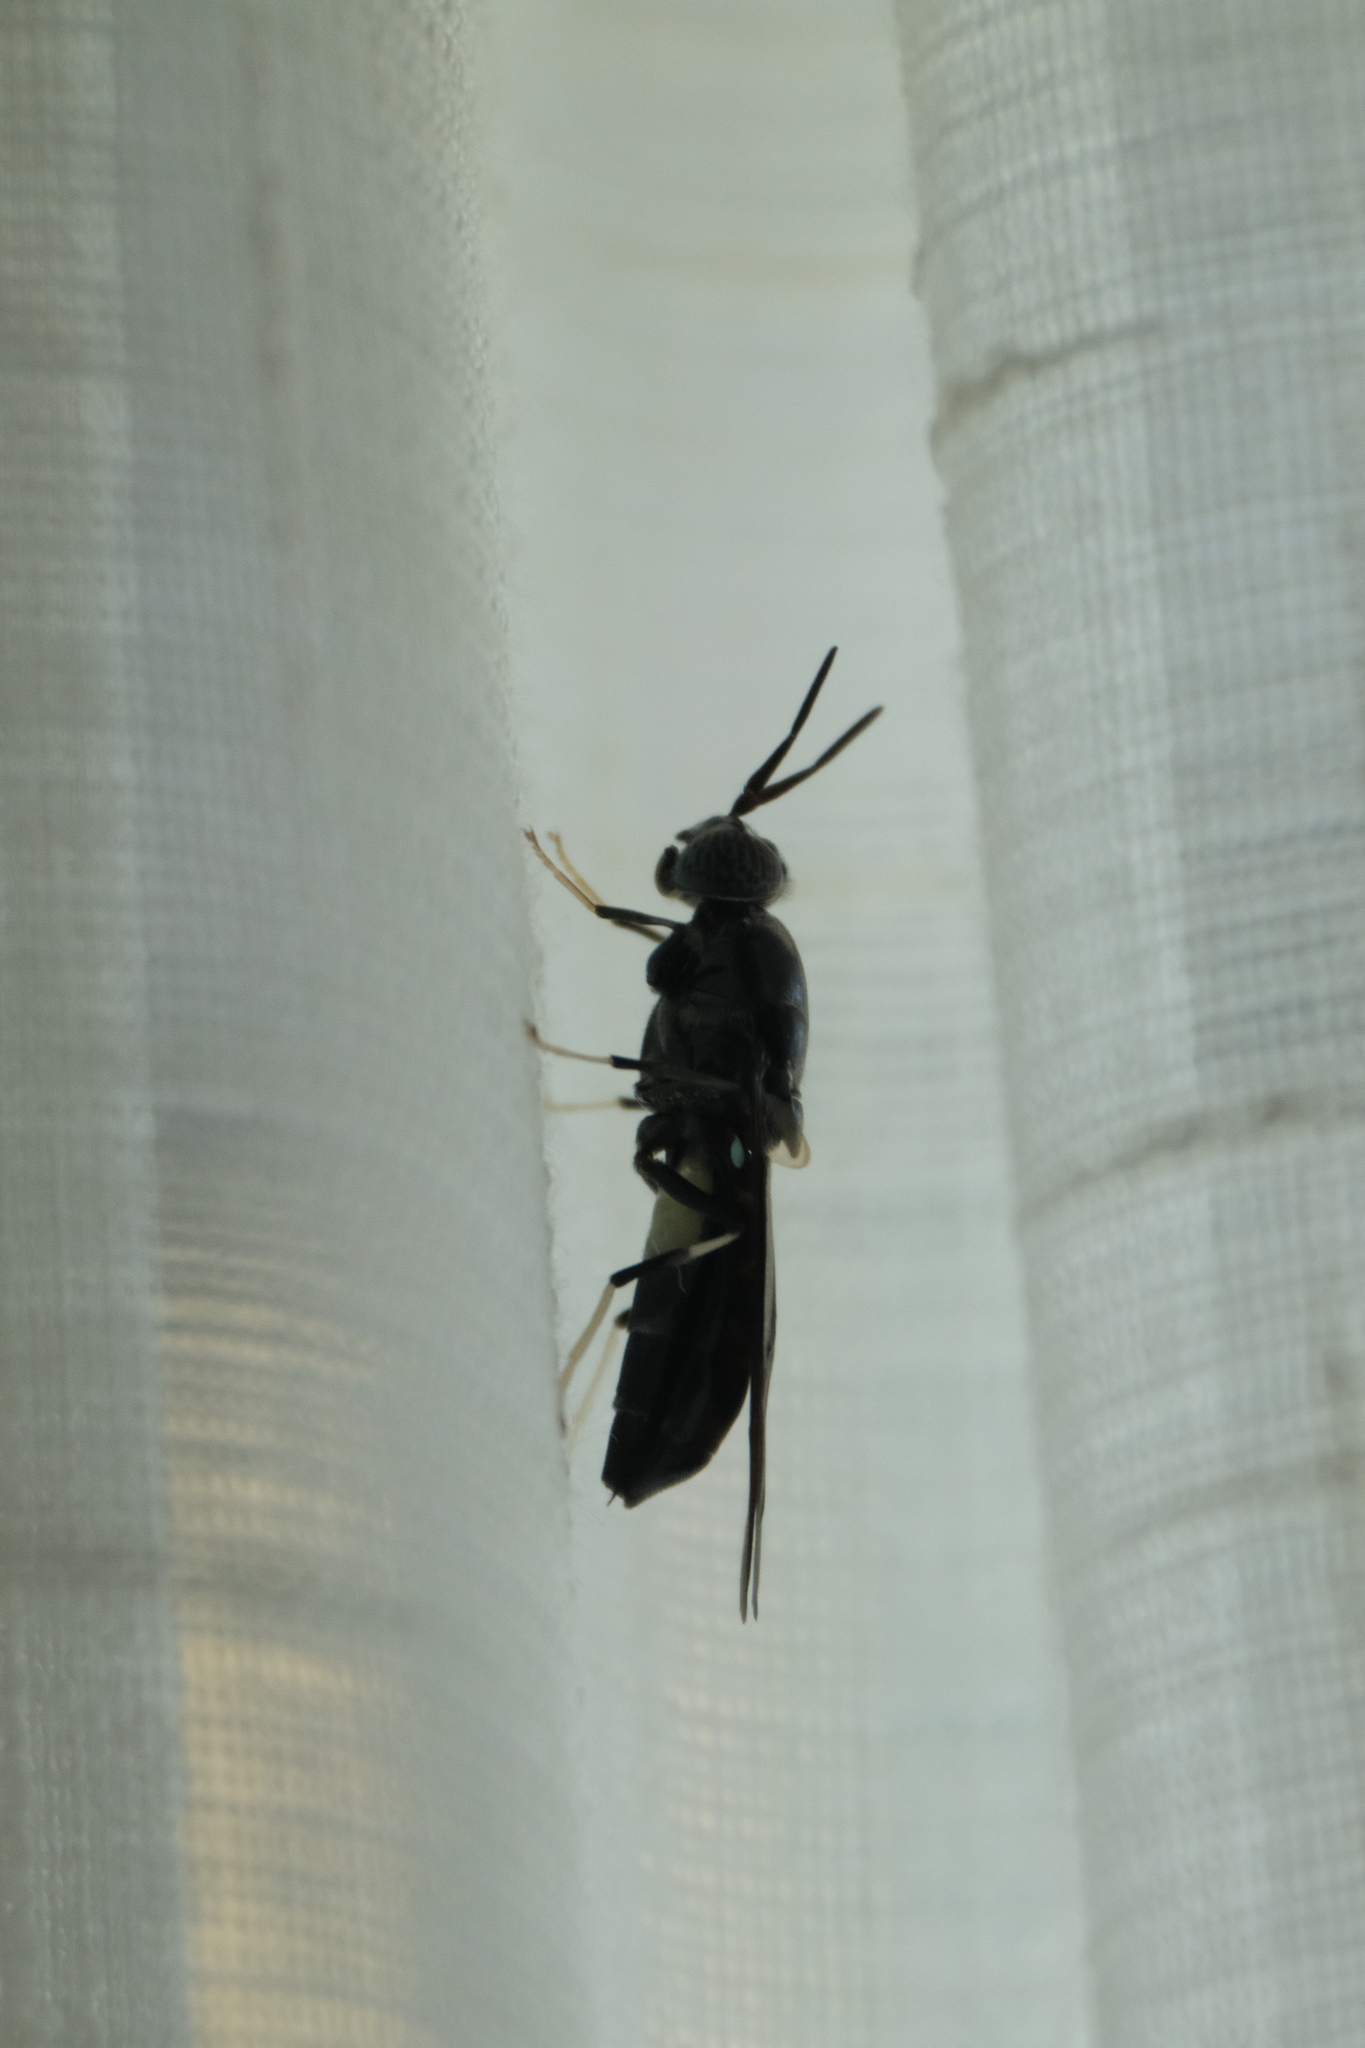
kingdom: Animalia
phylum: Arthropoda
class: Insecta
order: Diptera
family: Stratiomyidae
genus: Hermetia
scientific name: Hermetia illucens
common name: Black soldier fly
